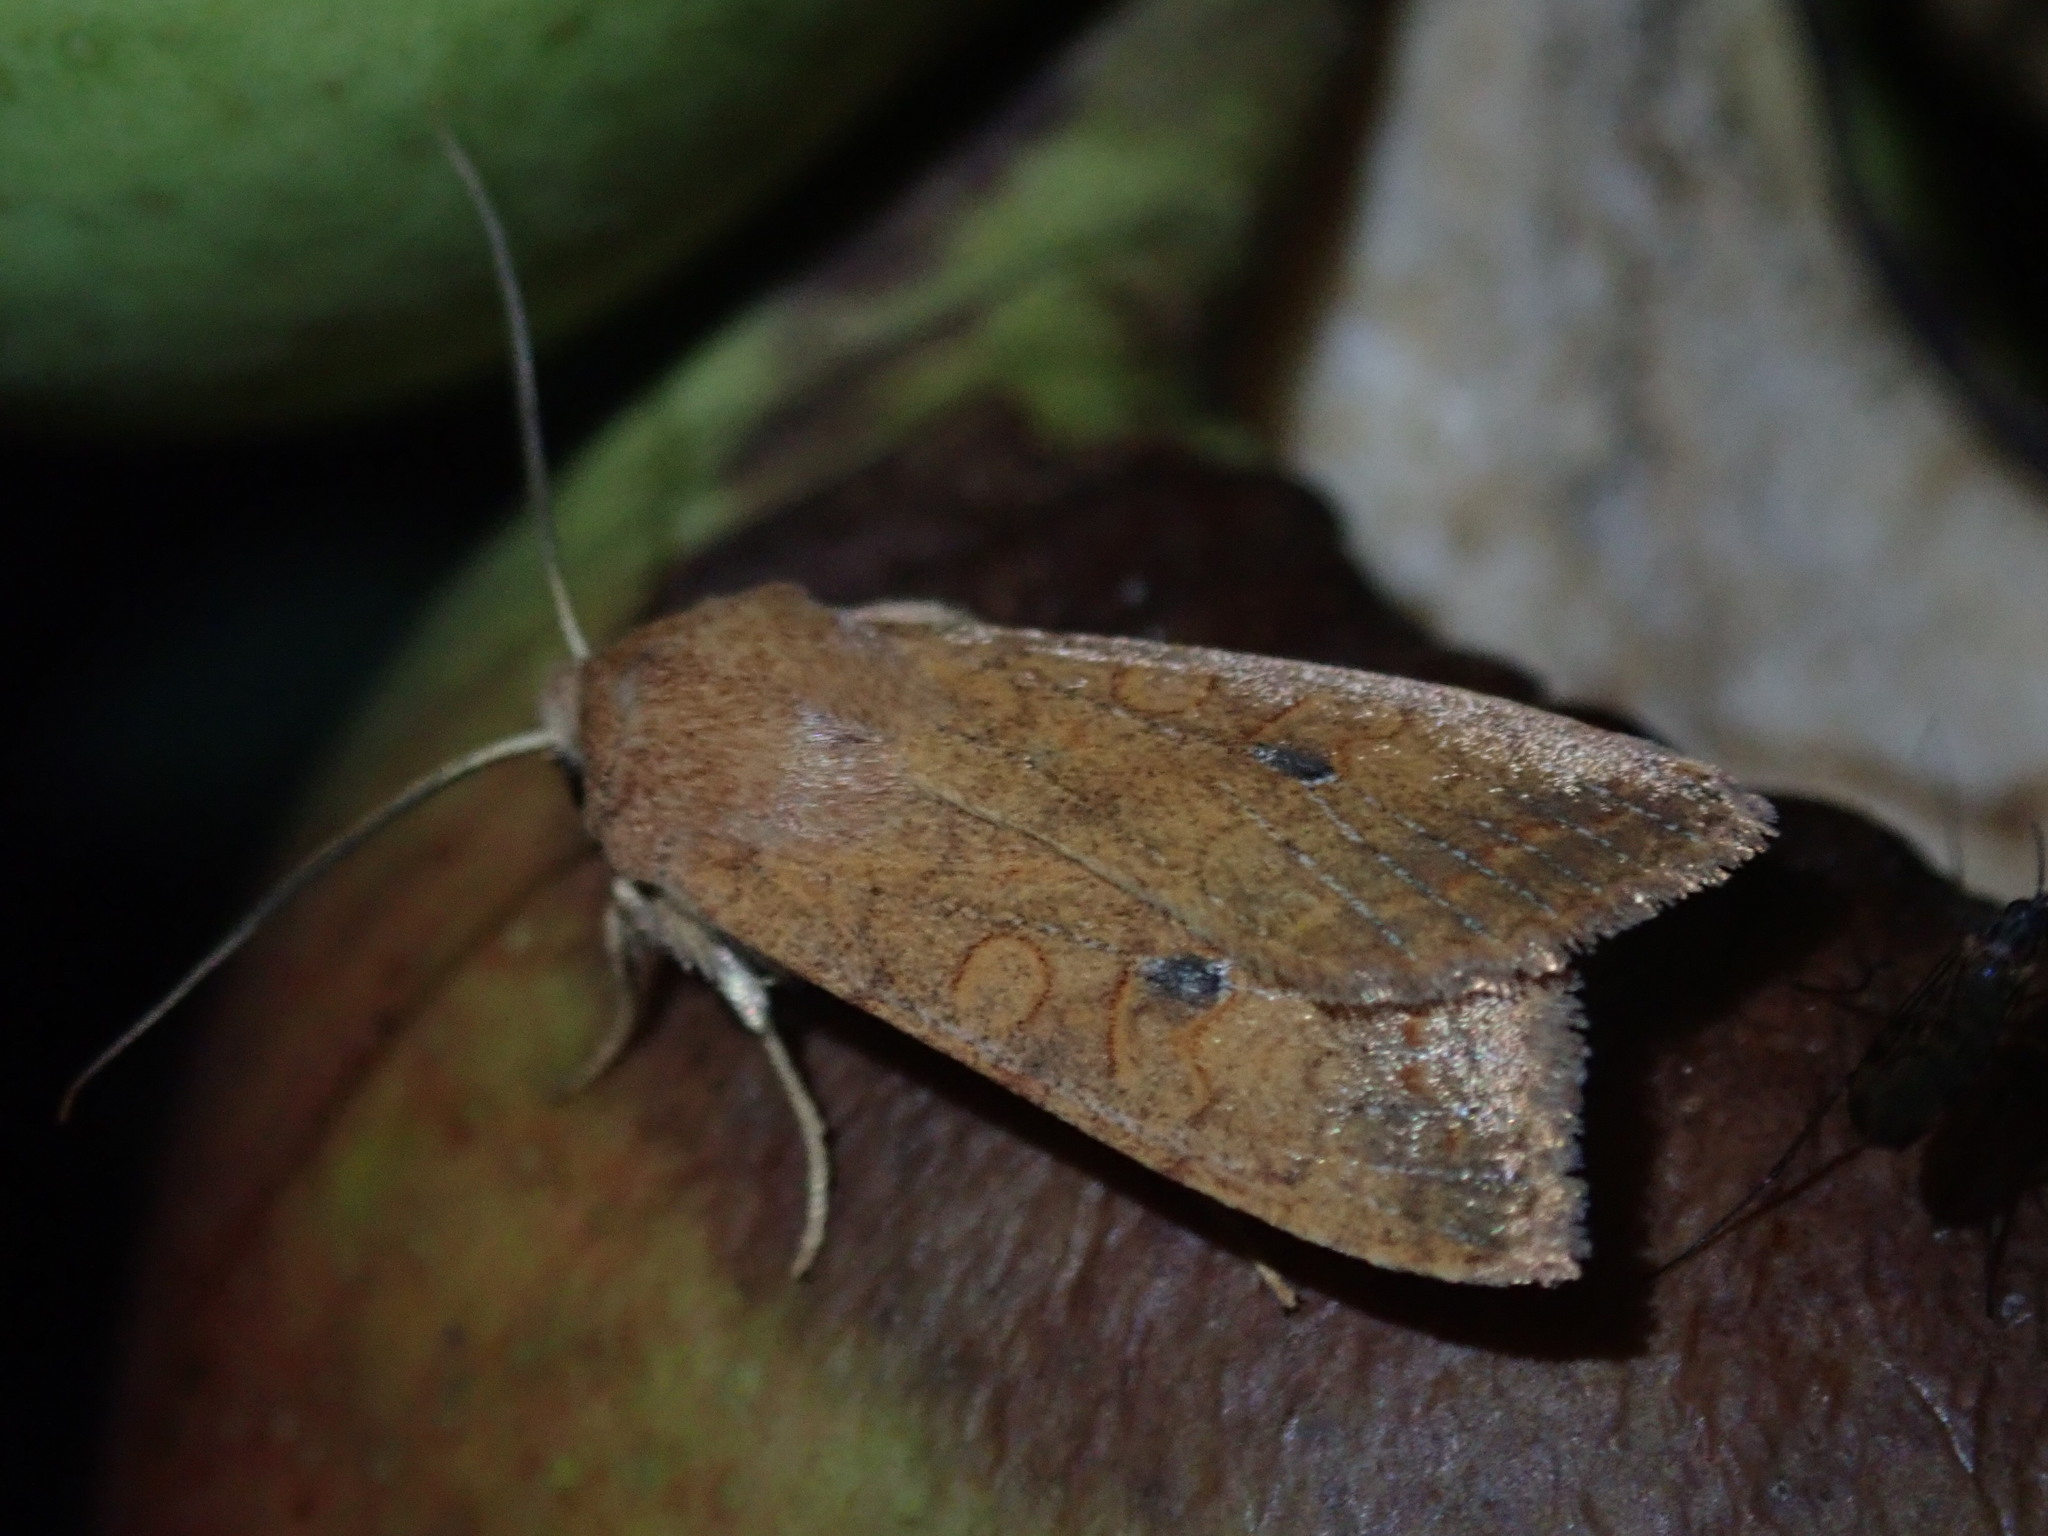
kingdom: Animalia
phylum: Arthropoda
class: Insecta
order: Lepidoptera
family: Noctuidae
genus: Sunira
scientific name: Sunira circellaris
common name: Brick
